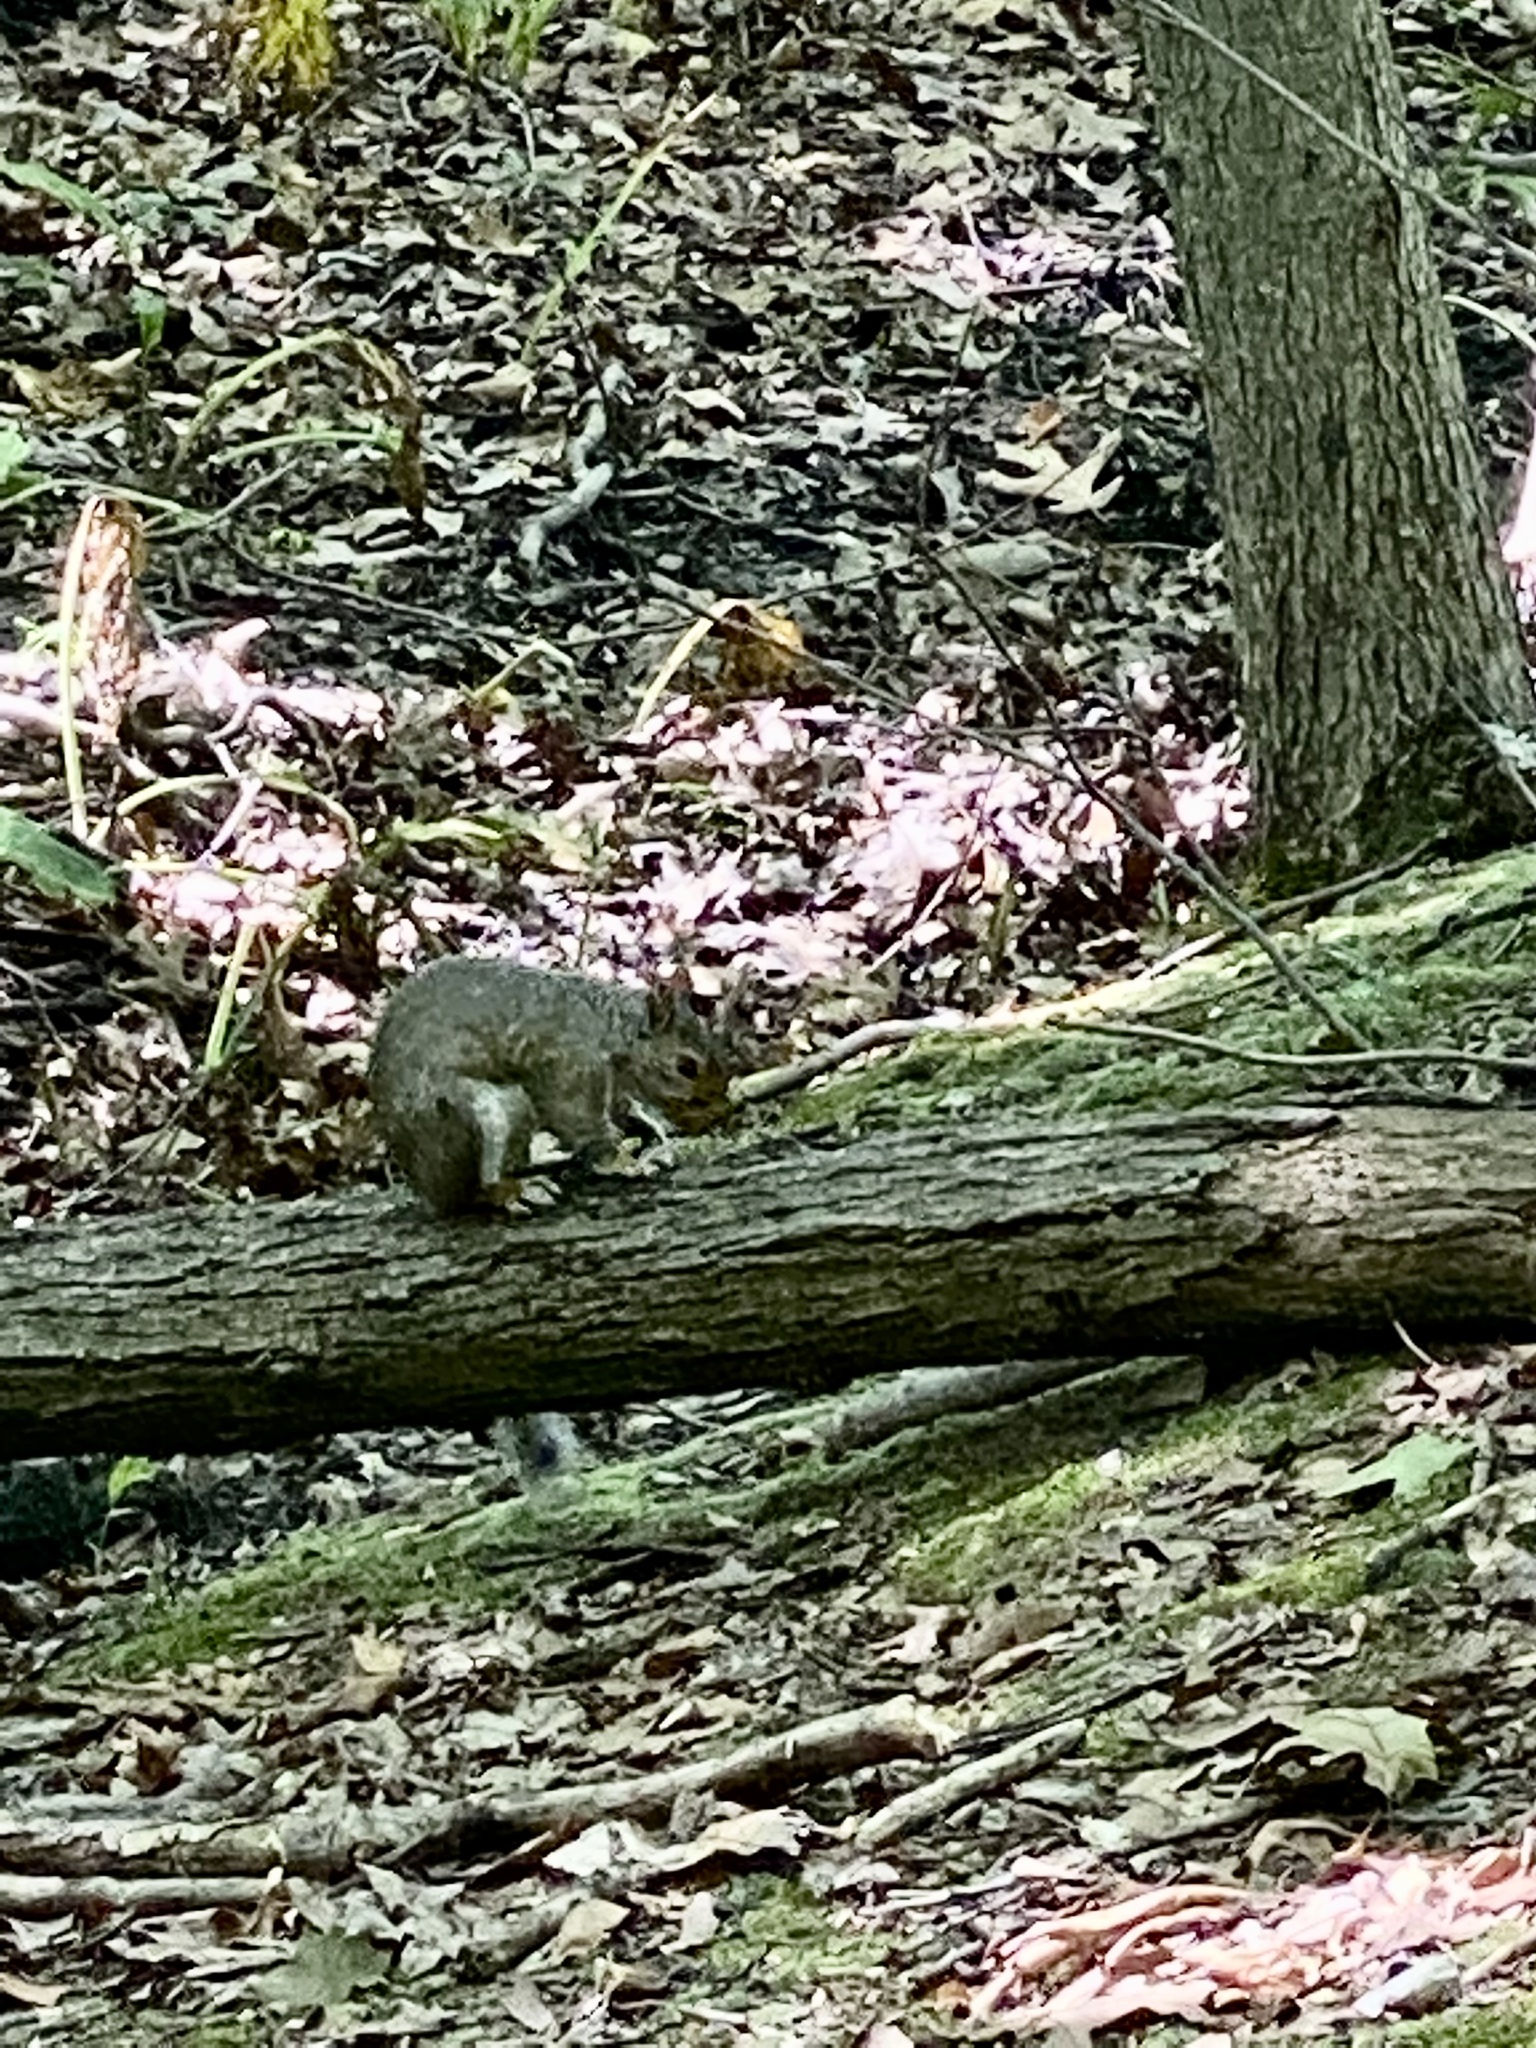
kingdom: Animalia
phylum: Chordata
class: Mammalia
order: Rodentia
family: Sciuridae
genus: Sciurus
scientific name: Sciurus carolinensis
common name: Eastern gray squirrel
